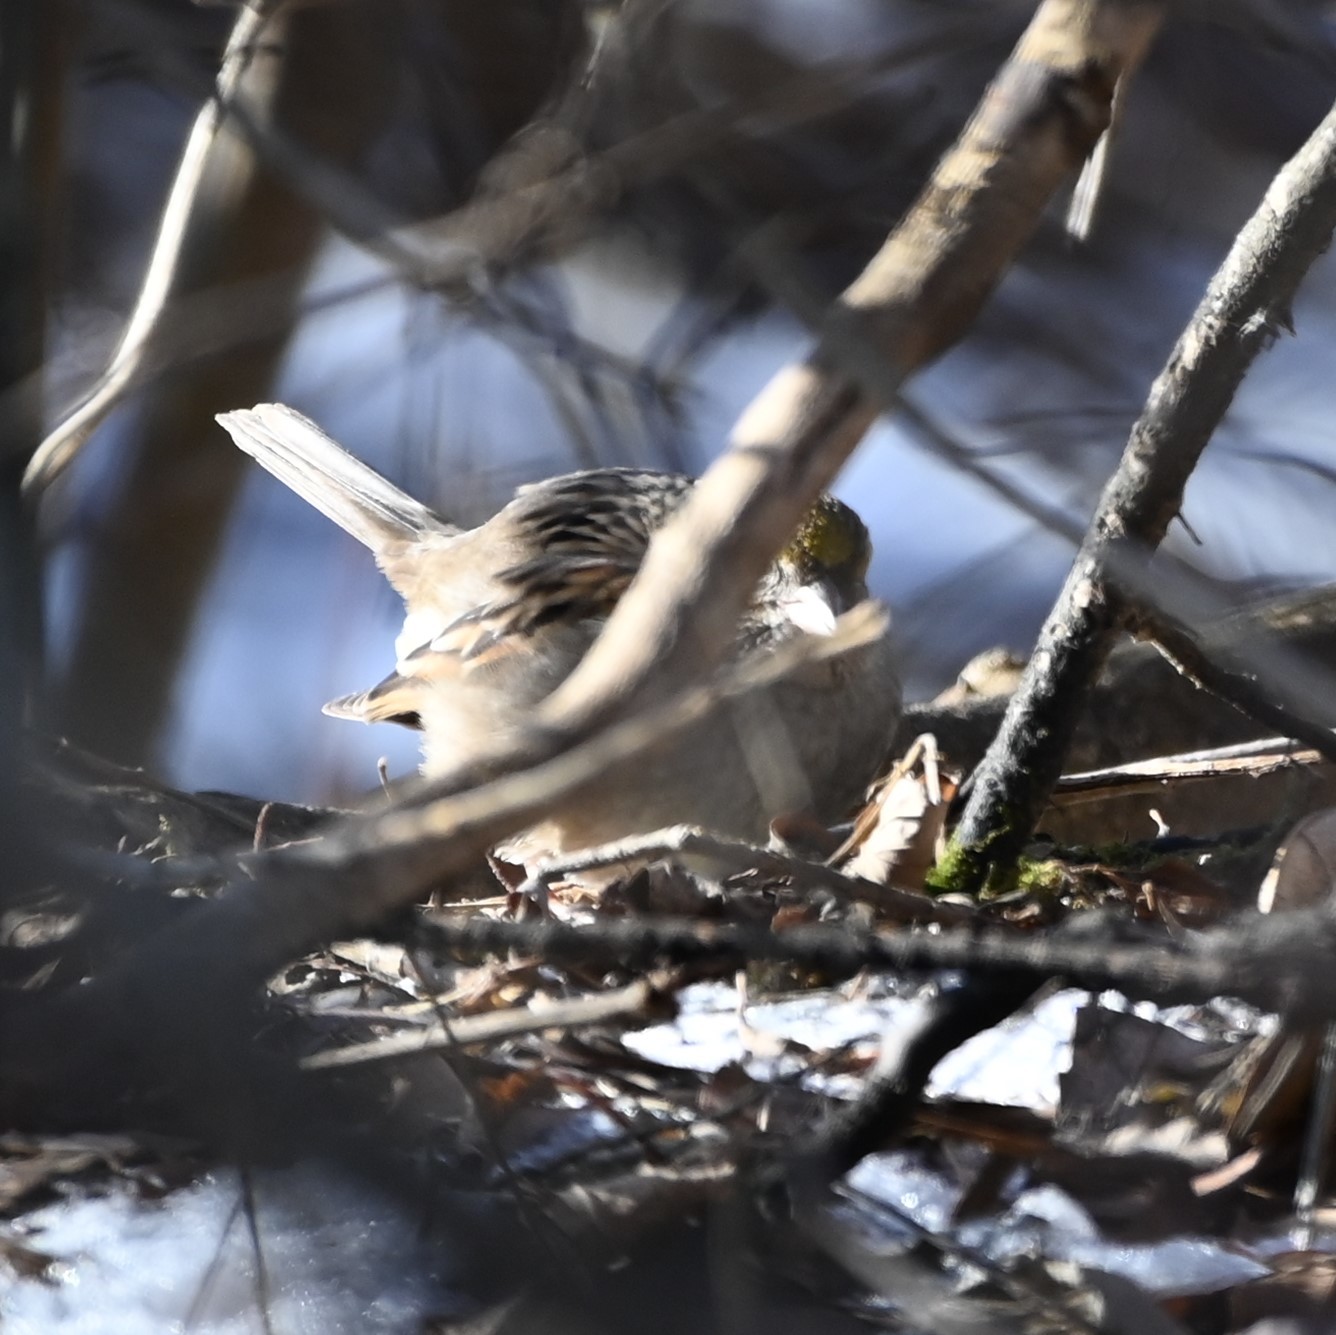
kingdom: Animalia
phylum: Chordata
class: Aves
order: Passeriformes
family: Passerellidae
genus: Zonotrichia
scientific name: Zonotrichia atricapilla
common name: Golden-crowned sparrow
